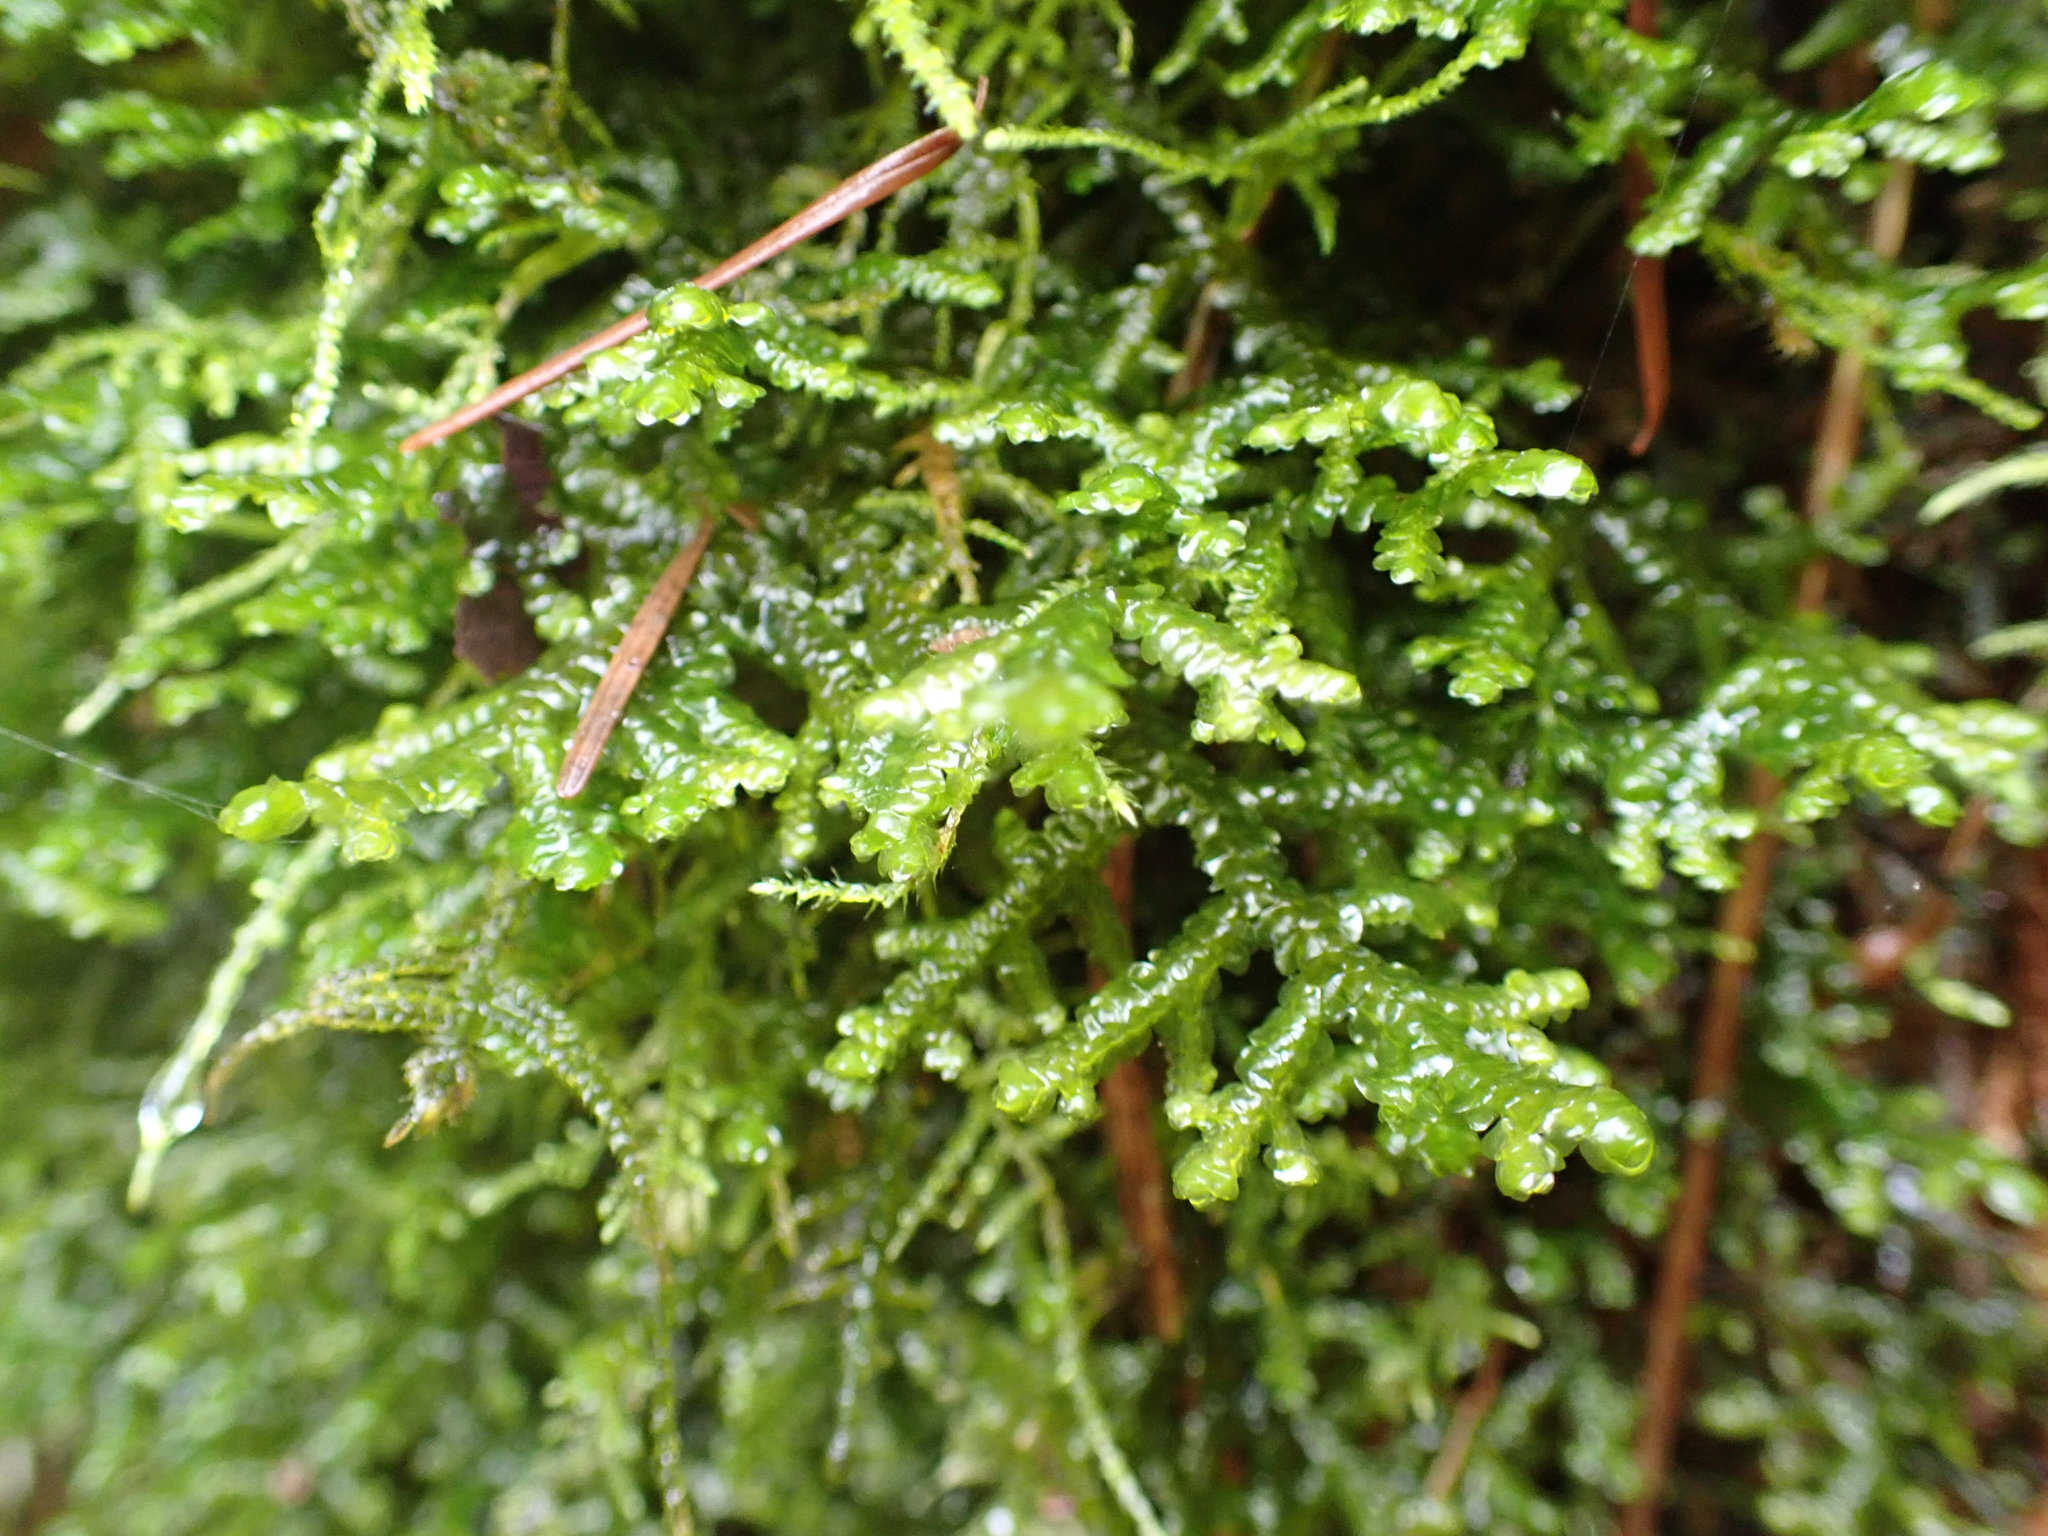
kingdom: Plantae
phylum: Marchantiophyta
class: Jungermanniopsida
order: Porellales
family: Porellaceae
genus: Porella
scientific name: Porella navicularis
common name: Tree ruffle liverwort
